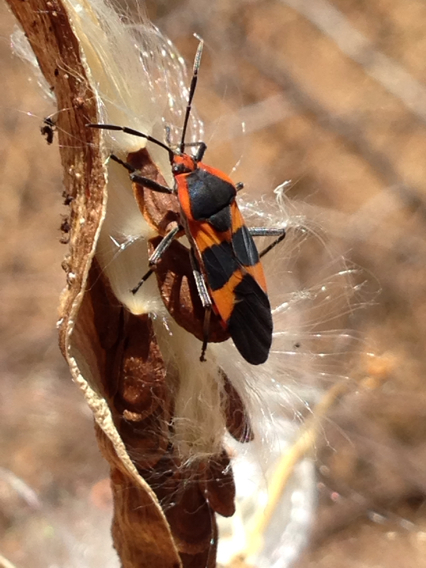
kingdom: Animalia
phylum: Arthropoda
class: Insecta
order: Hemiptera
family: Lygaeidae
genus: Oncopeltus
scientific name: Oncopeltus fasciatus
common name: Large milkweed bug
